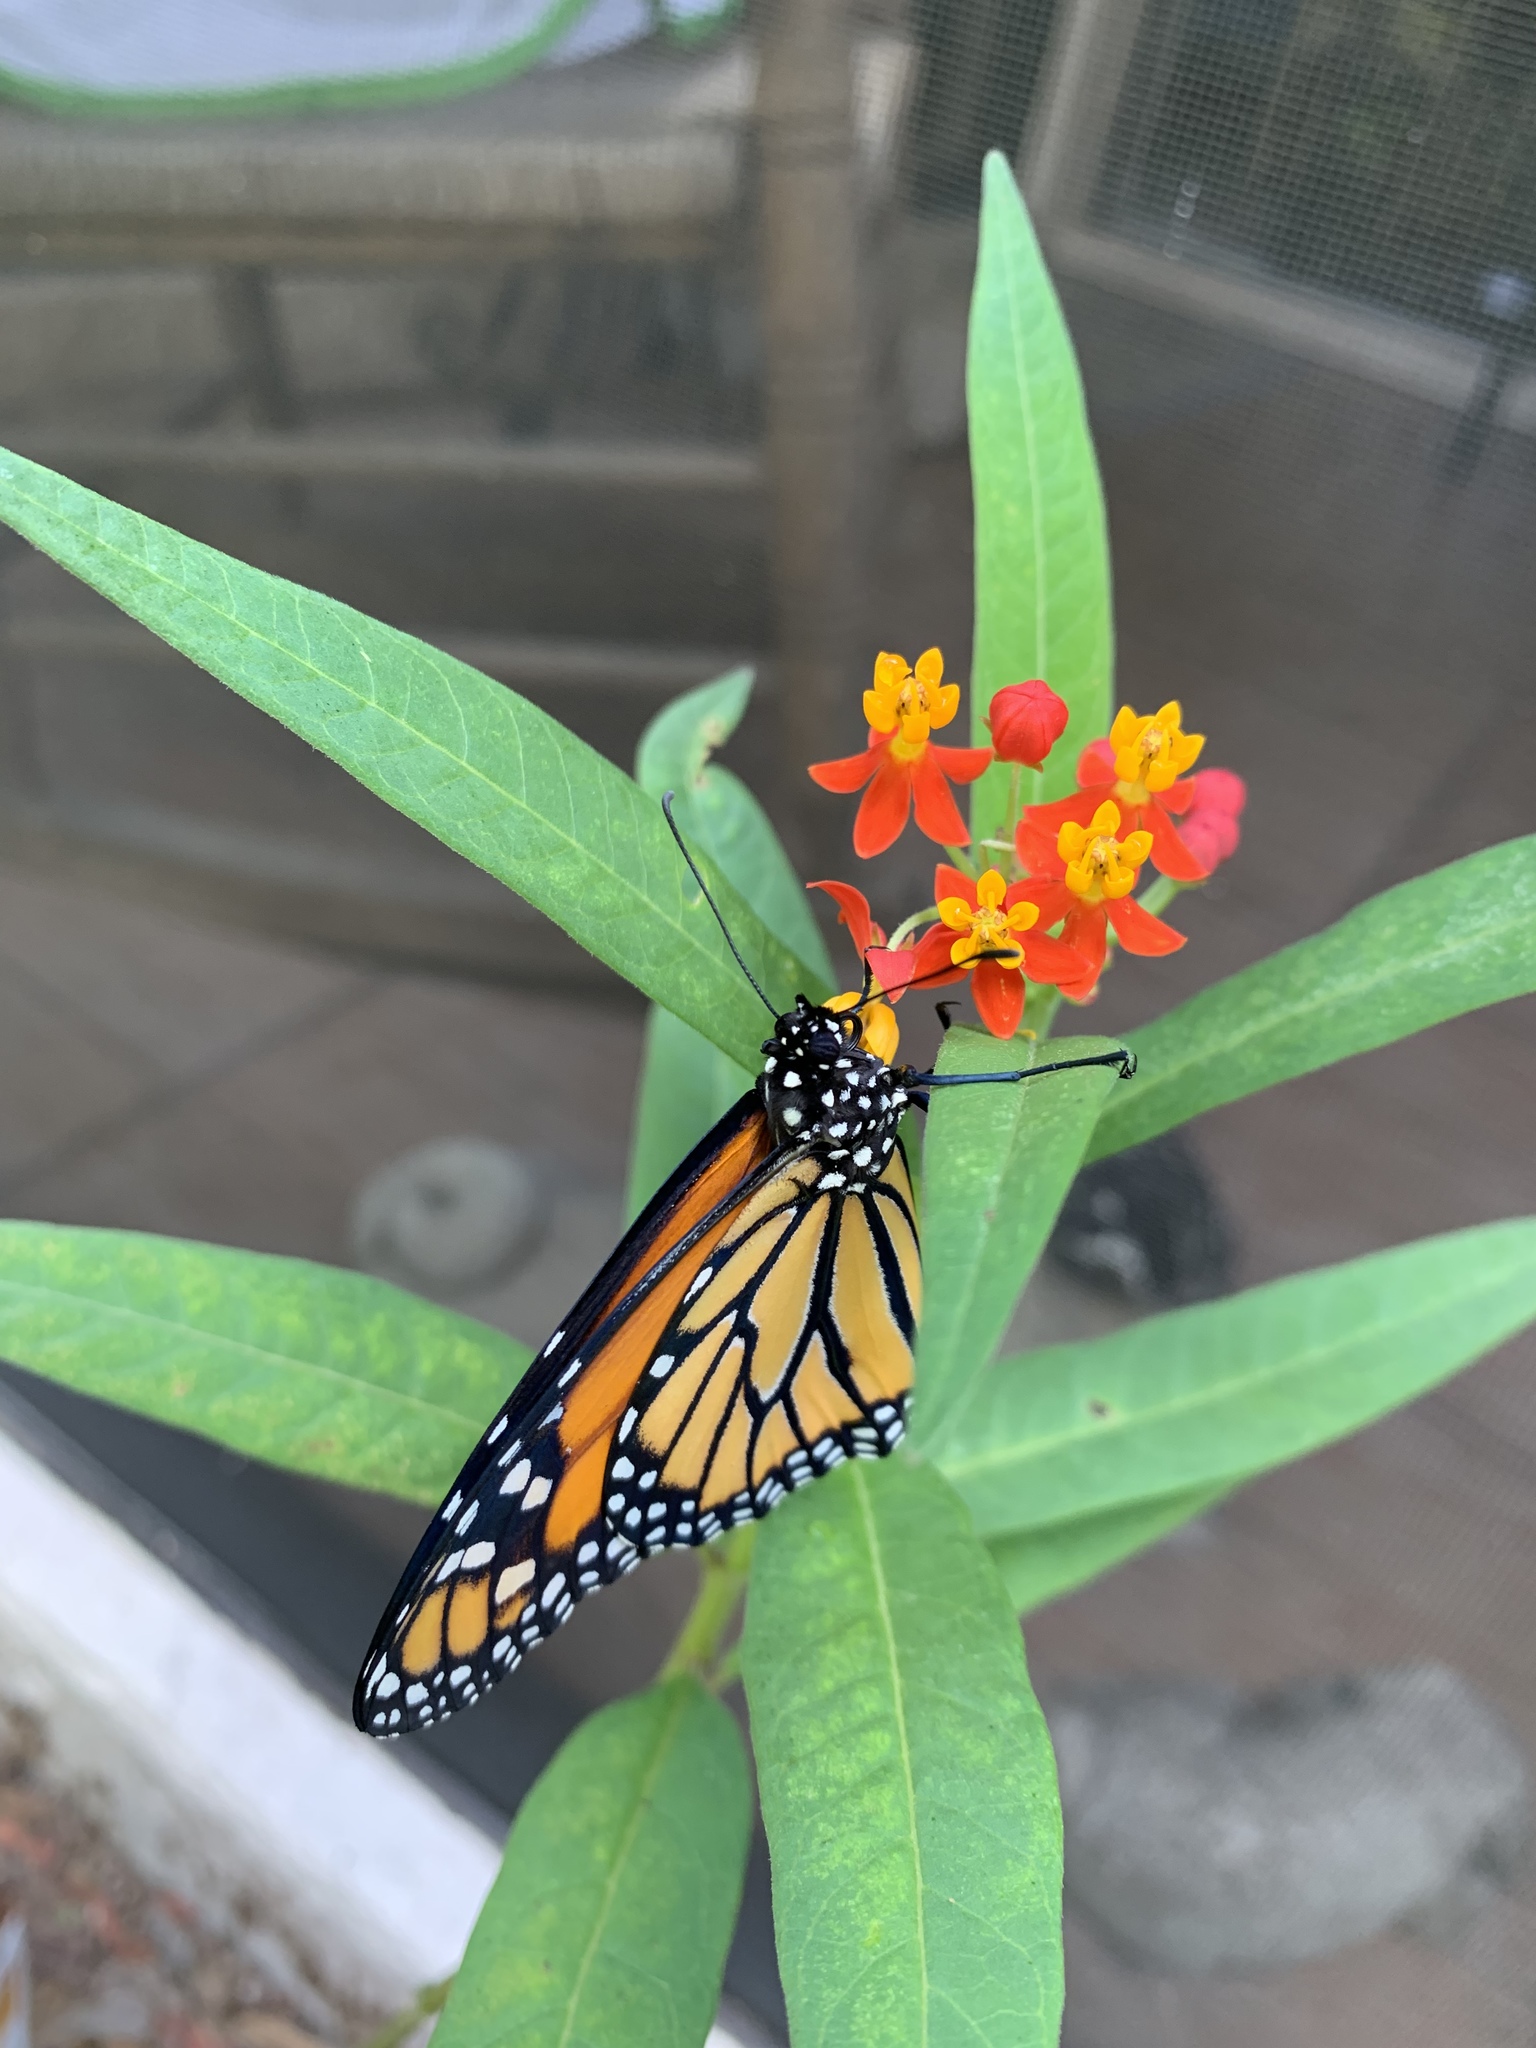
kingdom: Animalia
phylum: Arthropoda
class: Insecta
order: Lepidoptera
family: Nymphalidae
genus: Danaus
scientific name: Danaus plexippus
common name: Monarch
